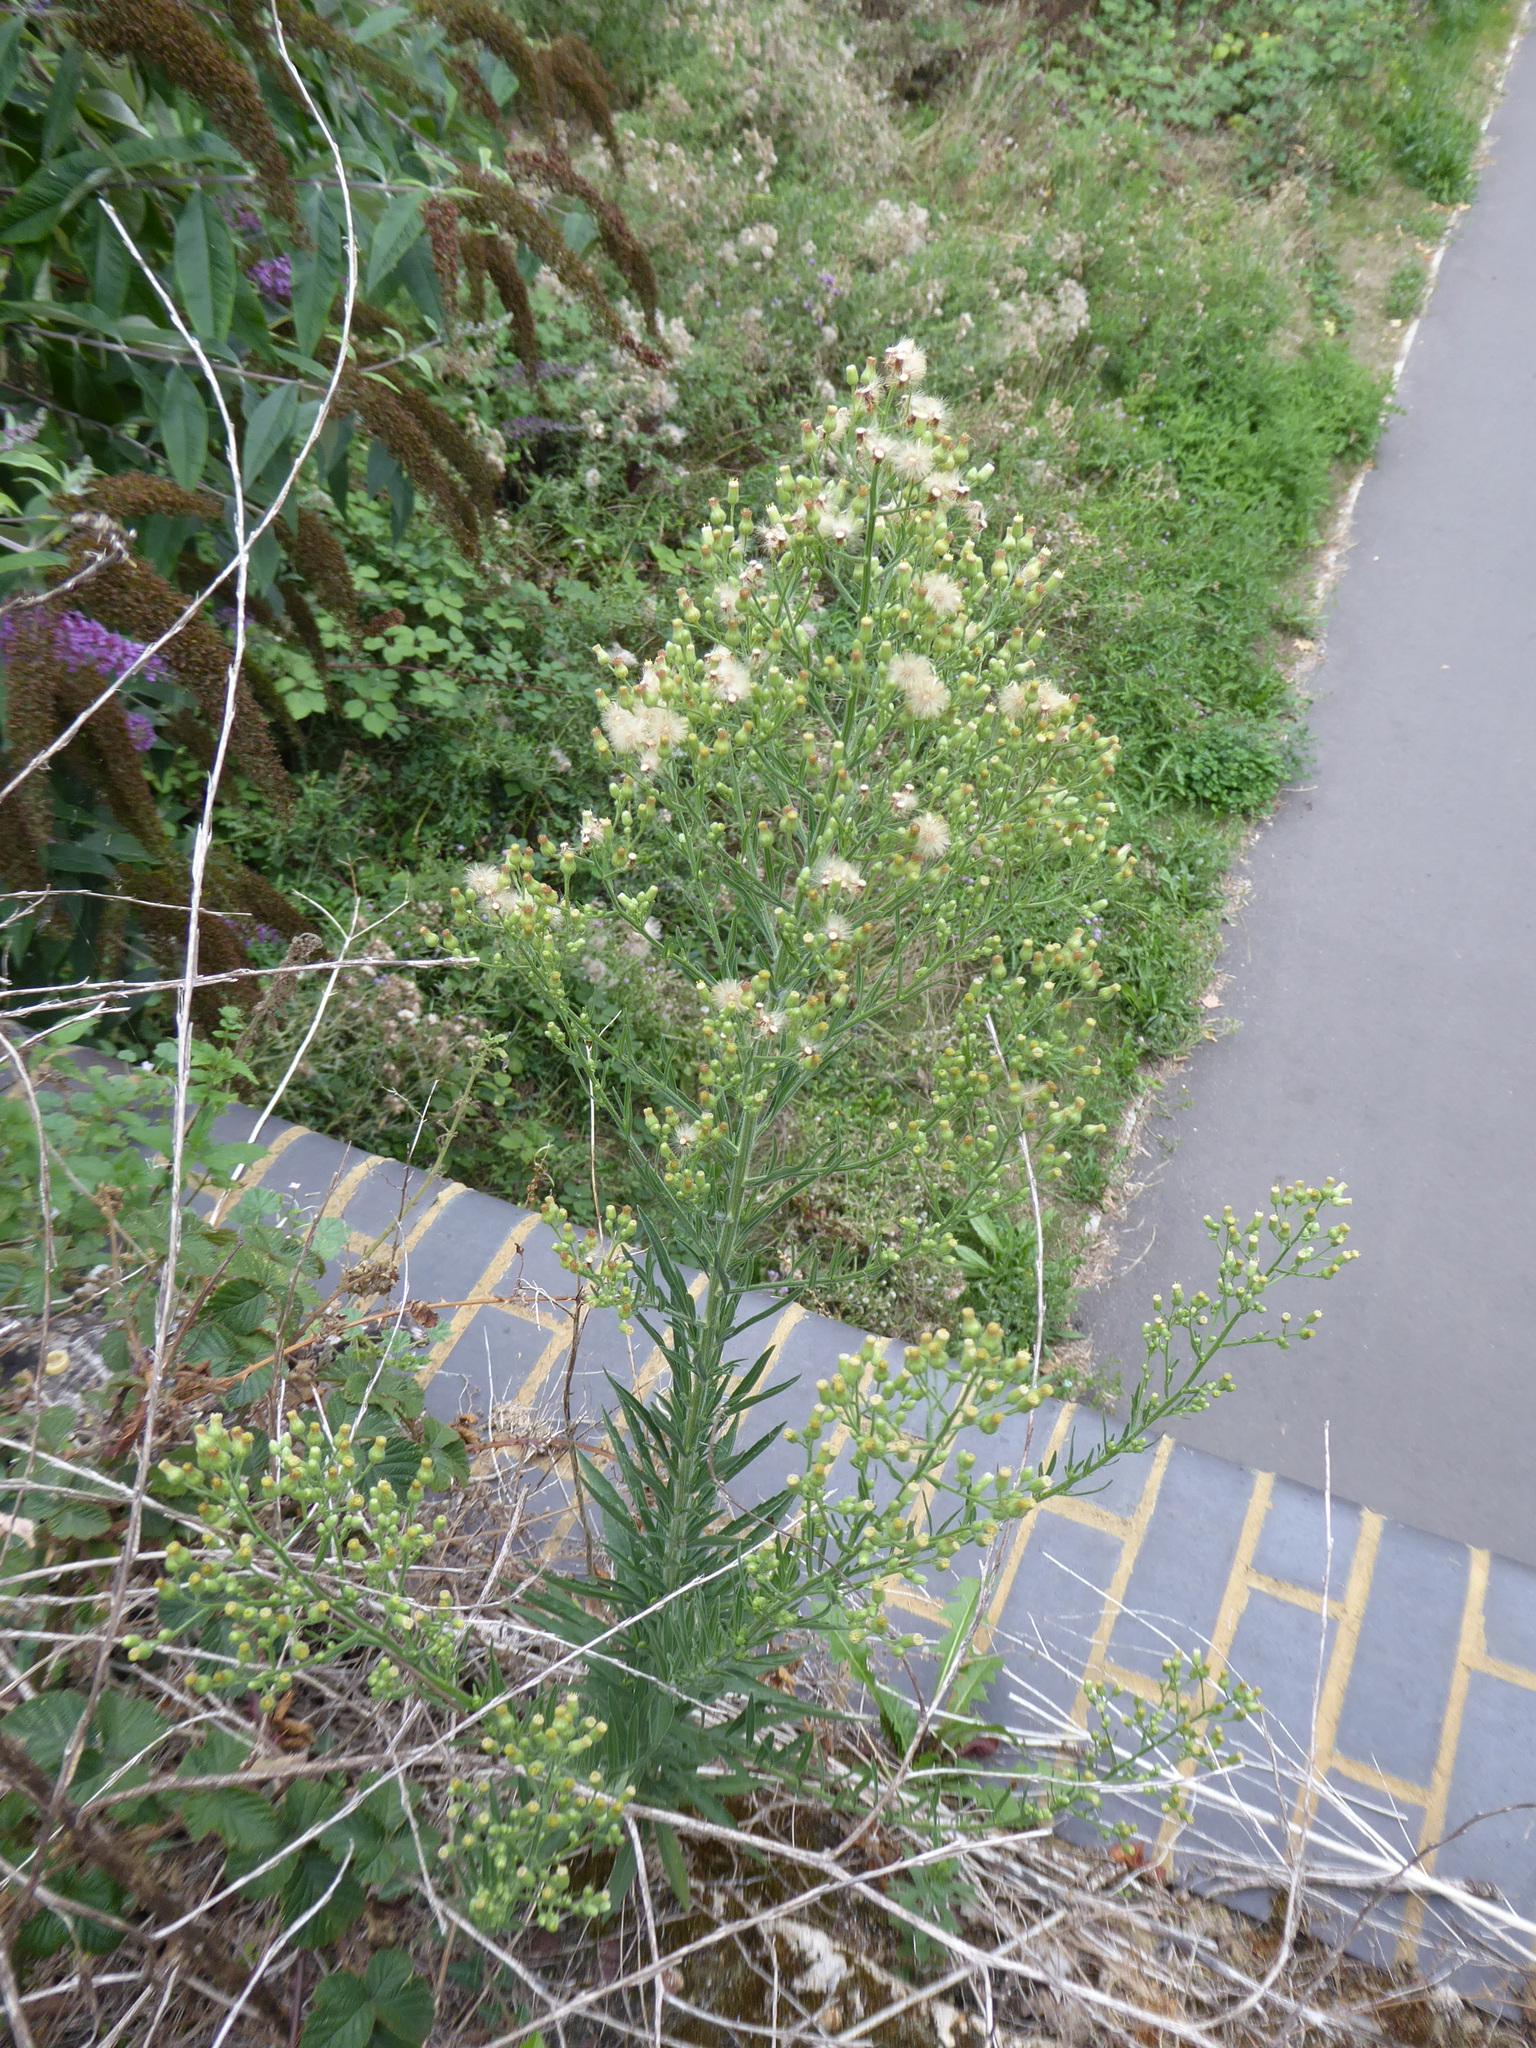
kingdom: Plantae
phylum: Tracheophyta
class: Magnoliopsida
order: Asterales
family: Asteraceae
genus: Erigeron
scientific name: Erigeron sumatrensis
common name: Daisy
